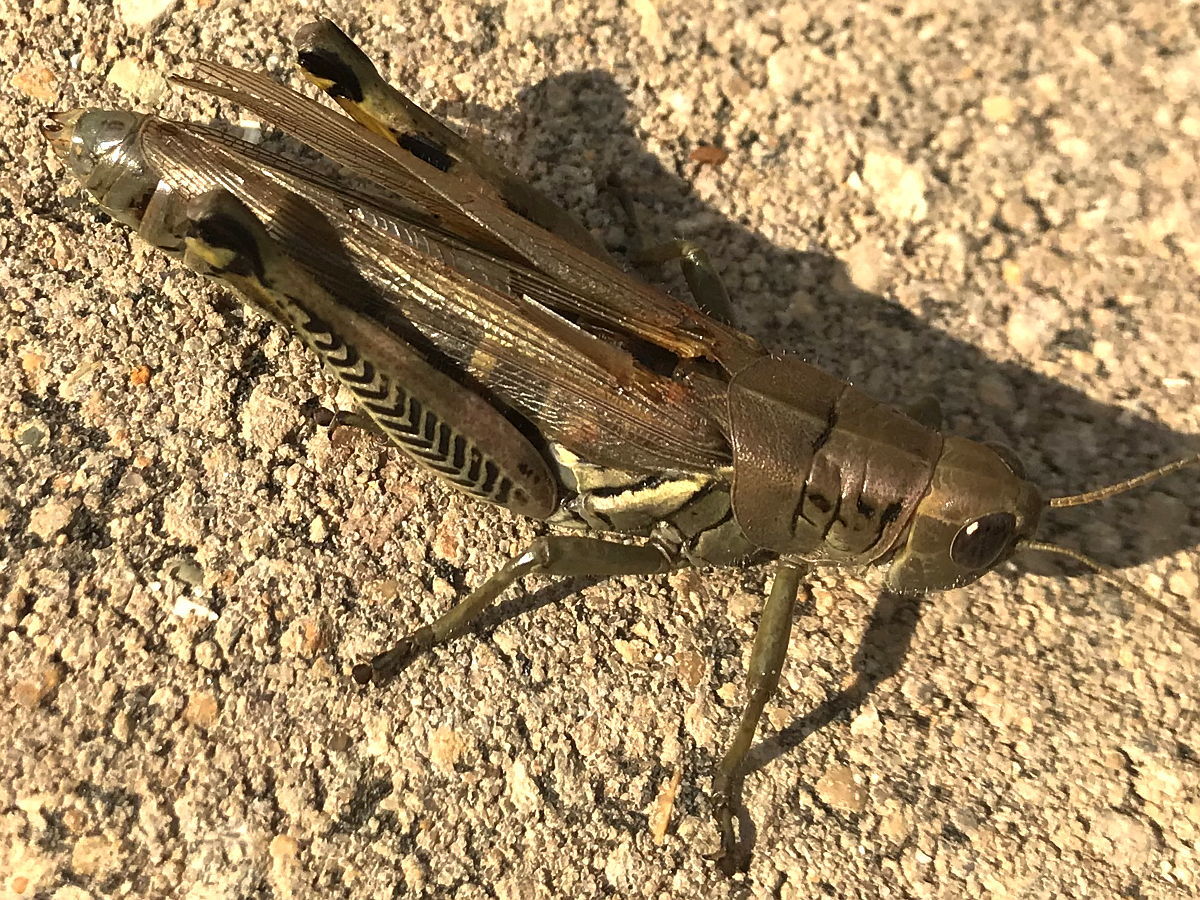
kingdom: Animalia
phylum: Arthropoda
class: Insecta
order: Orthoptera
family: Acrididae
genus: Melanoplus
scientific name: Melanoplus differentialis
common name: Differential grasshopper
